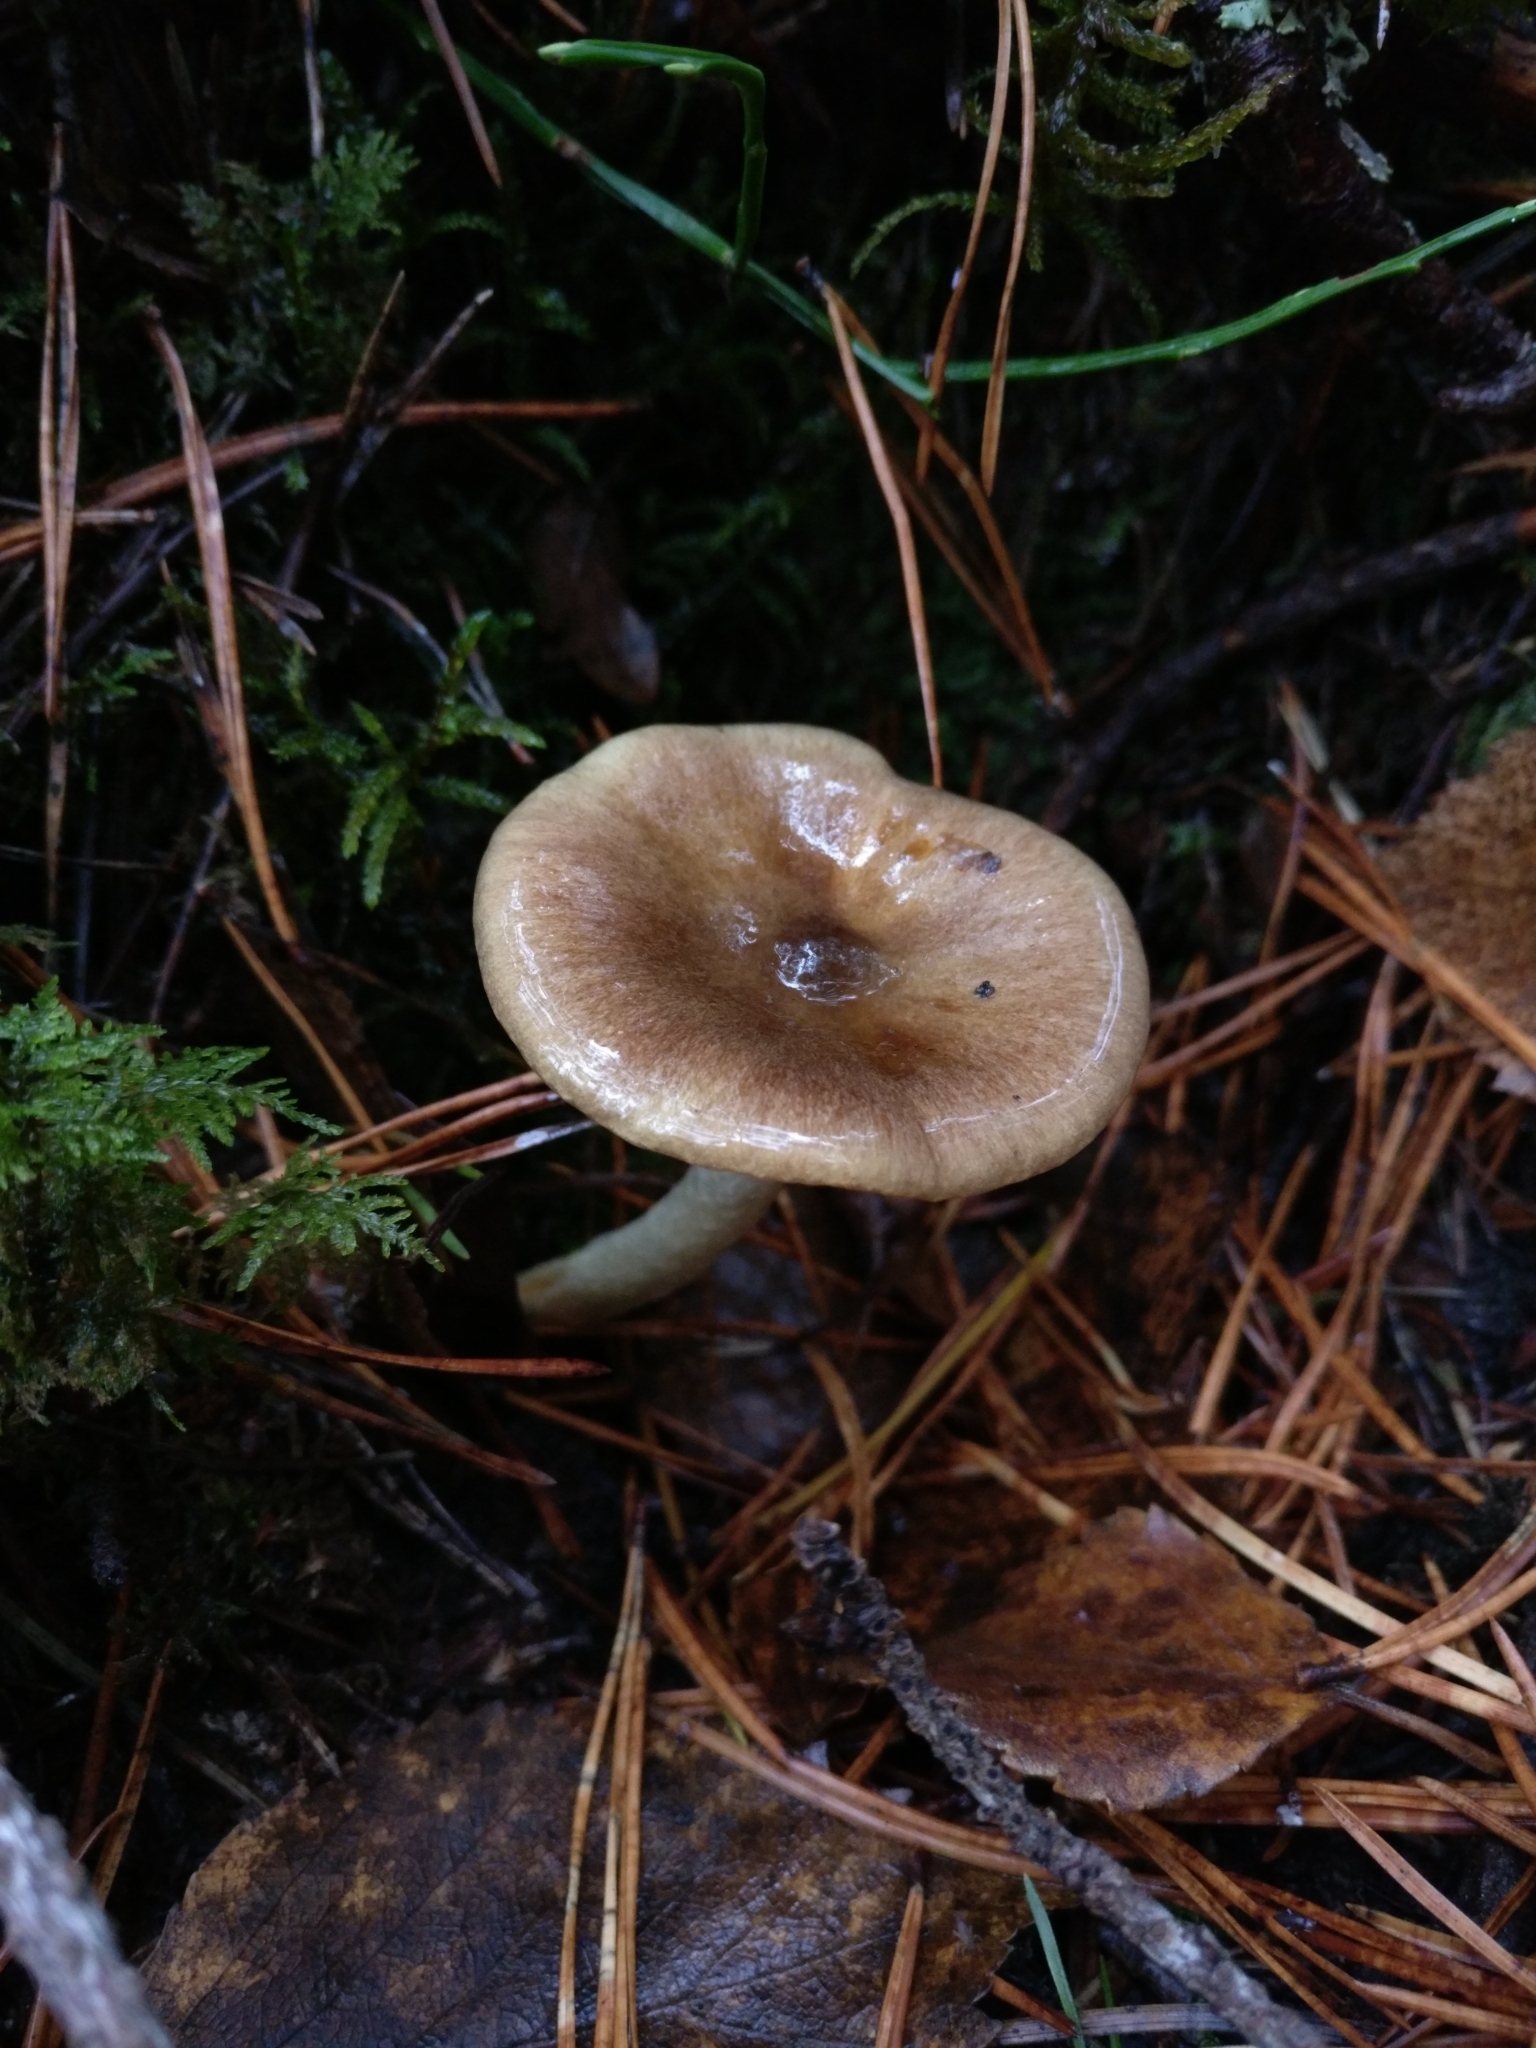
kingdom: Fungi
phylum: Basidiomycota
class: Agaricomycetes
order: Agaricales
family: Hygrophoraceae
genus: Hygrophorus
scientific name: Hygrophorus hypothejus
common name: Herald of winter
